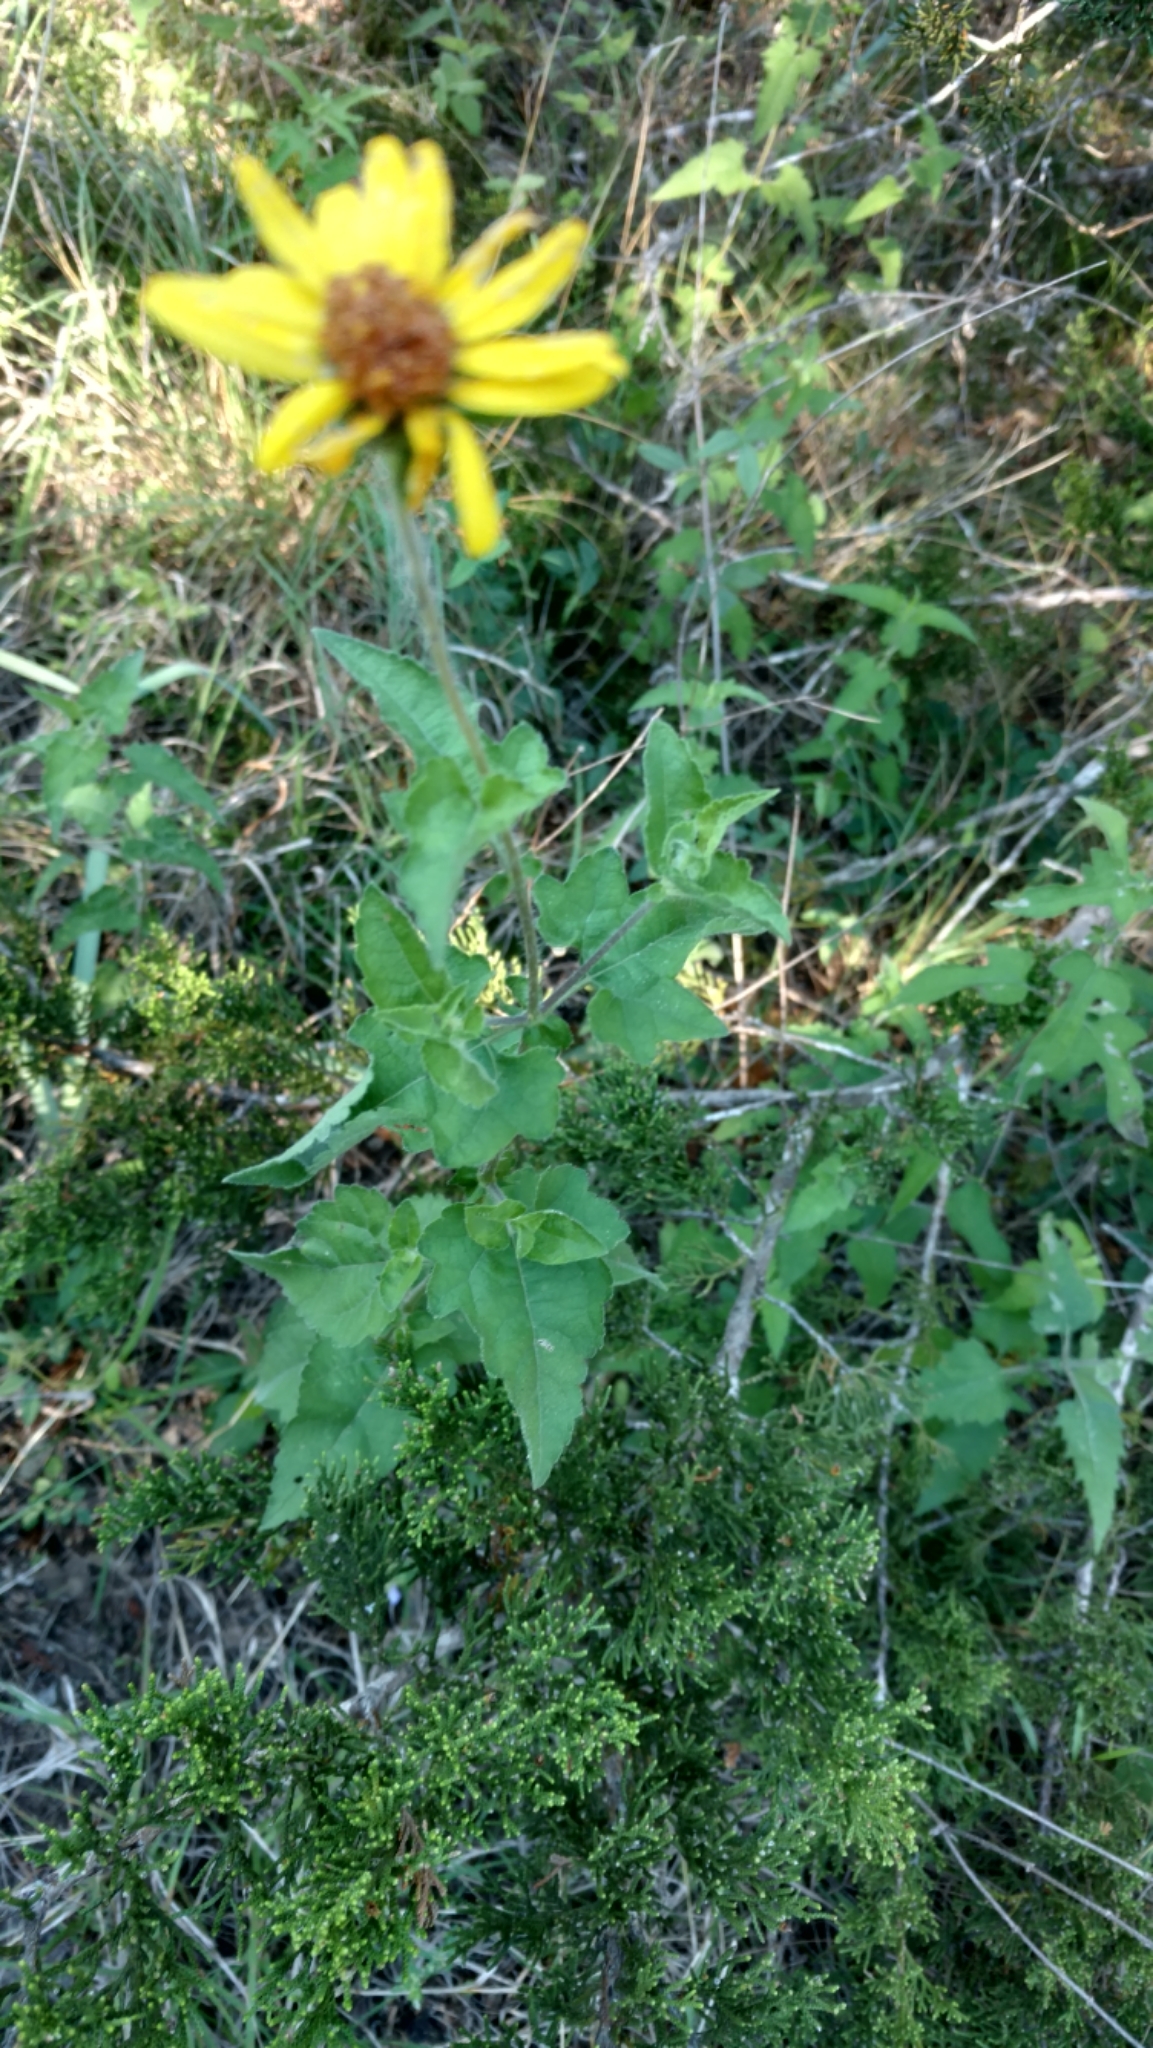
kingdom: Plantae
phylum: Tracheophyta
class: Magnoliopsida
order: Asterales
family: Asteraceae
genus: Simsia
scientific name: Simsia calva
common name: Awnless bush-sunflower
